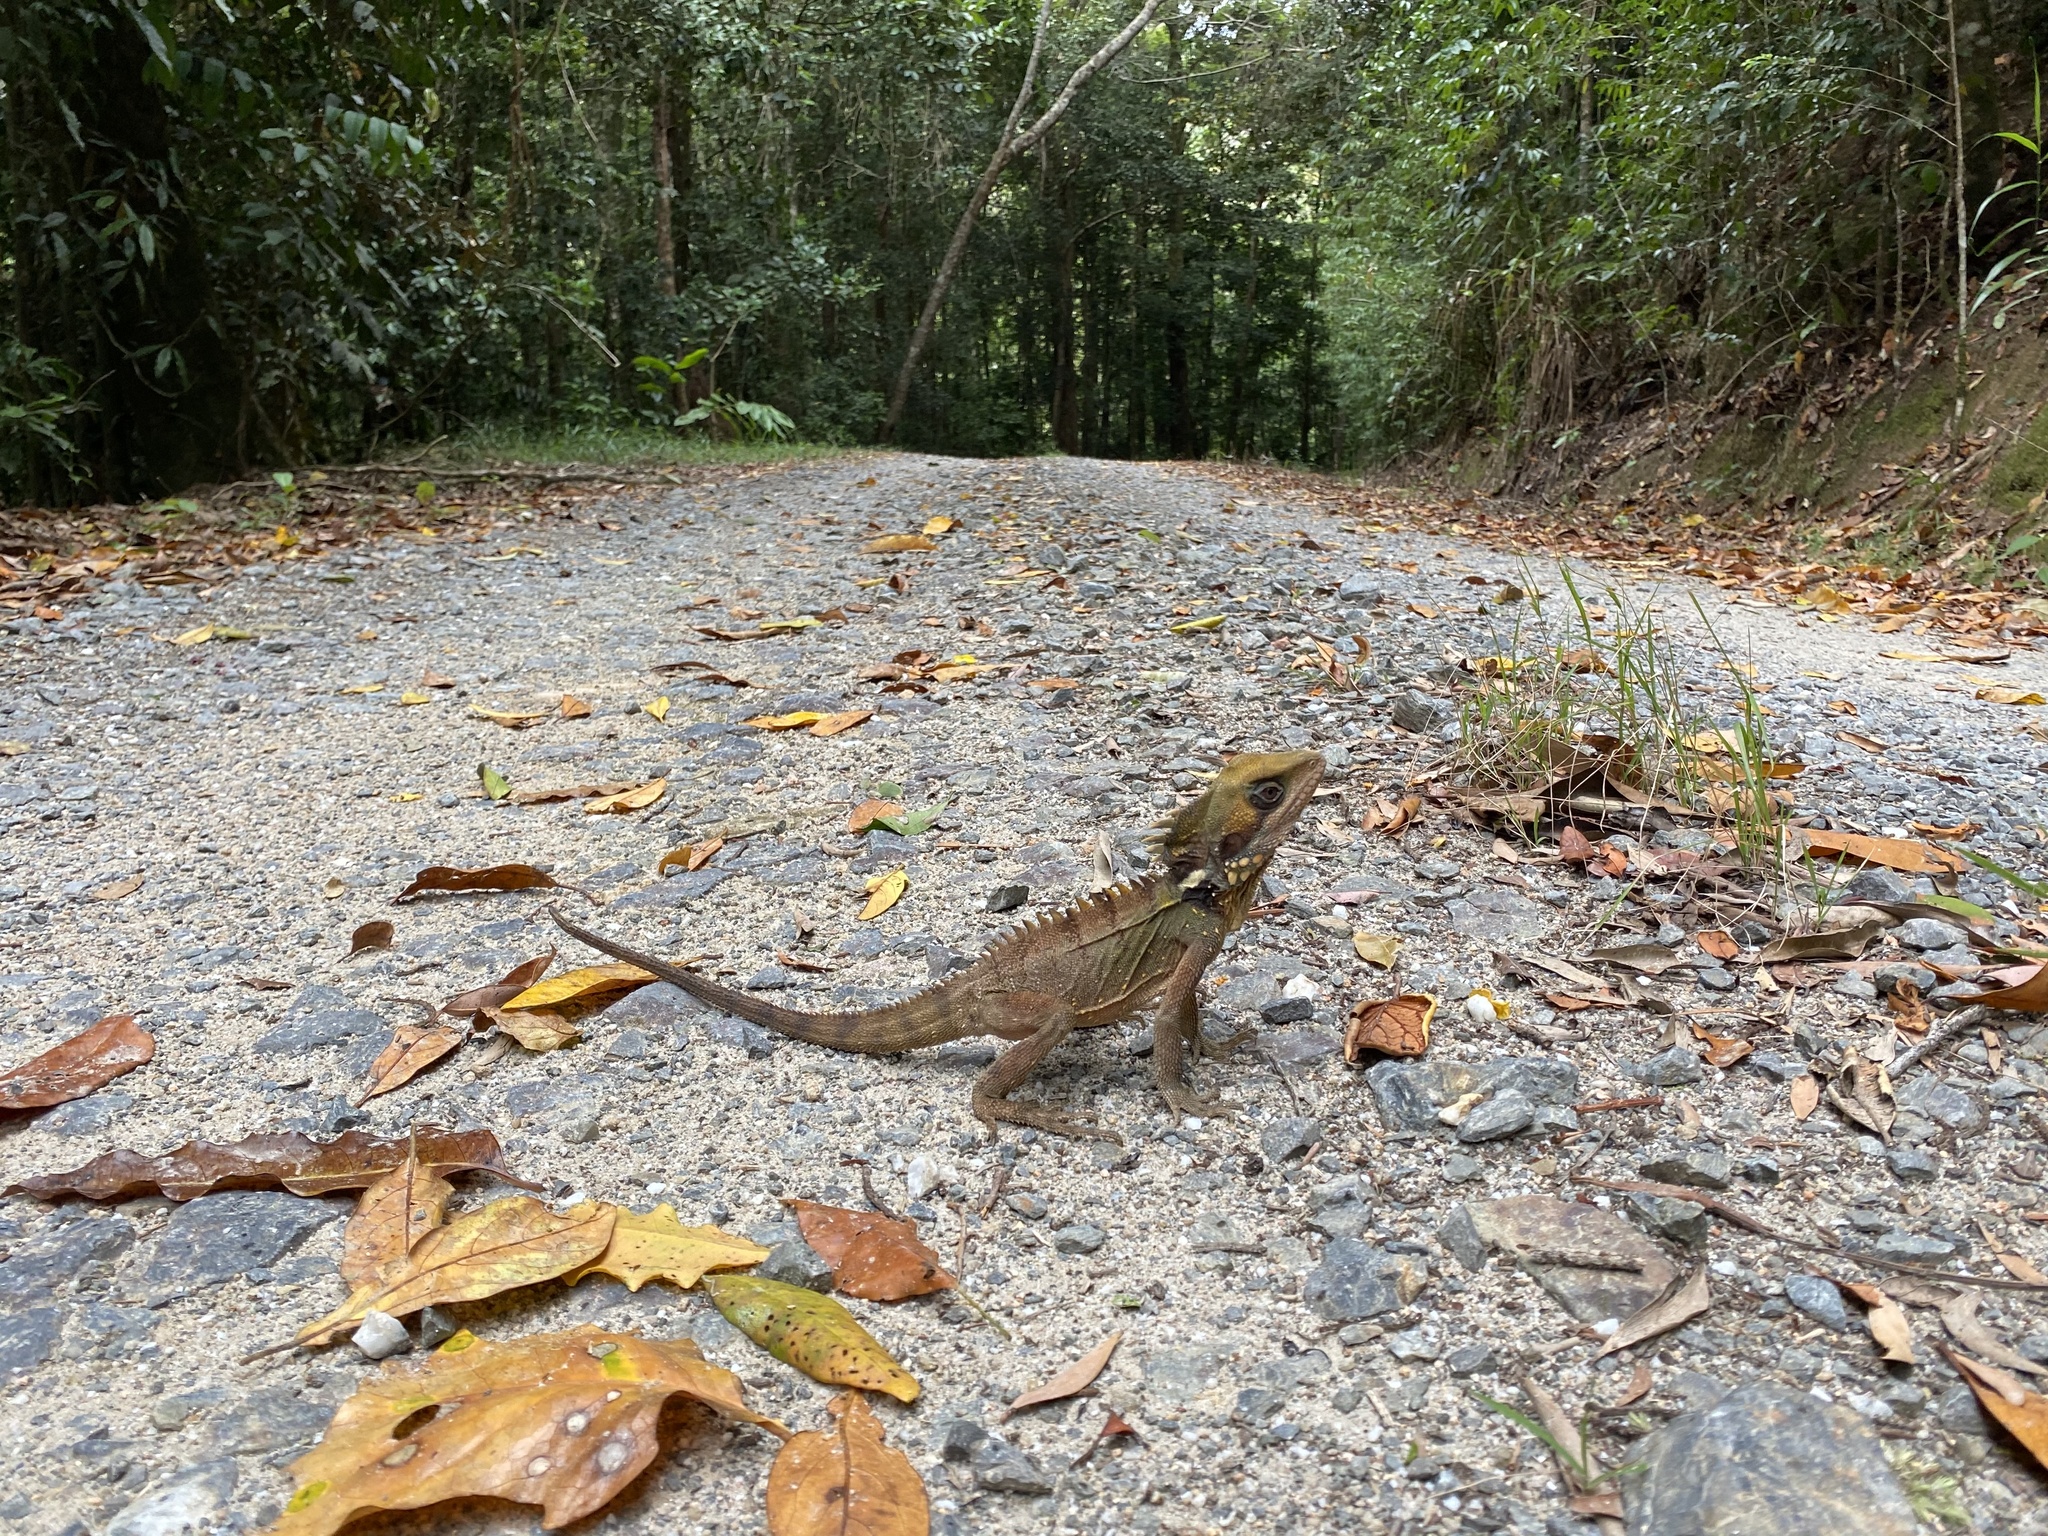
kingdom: Animalia
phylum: Chordata
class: Squamata
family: Agamidae
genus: Lophosaurus
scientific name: Lophosaurus boydii
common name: Boyd's forest dragon
